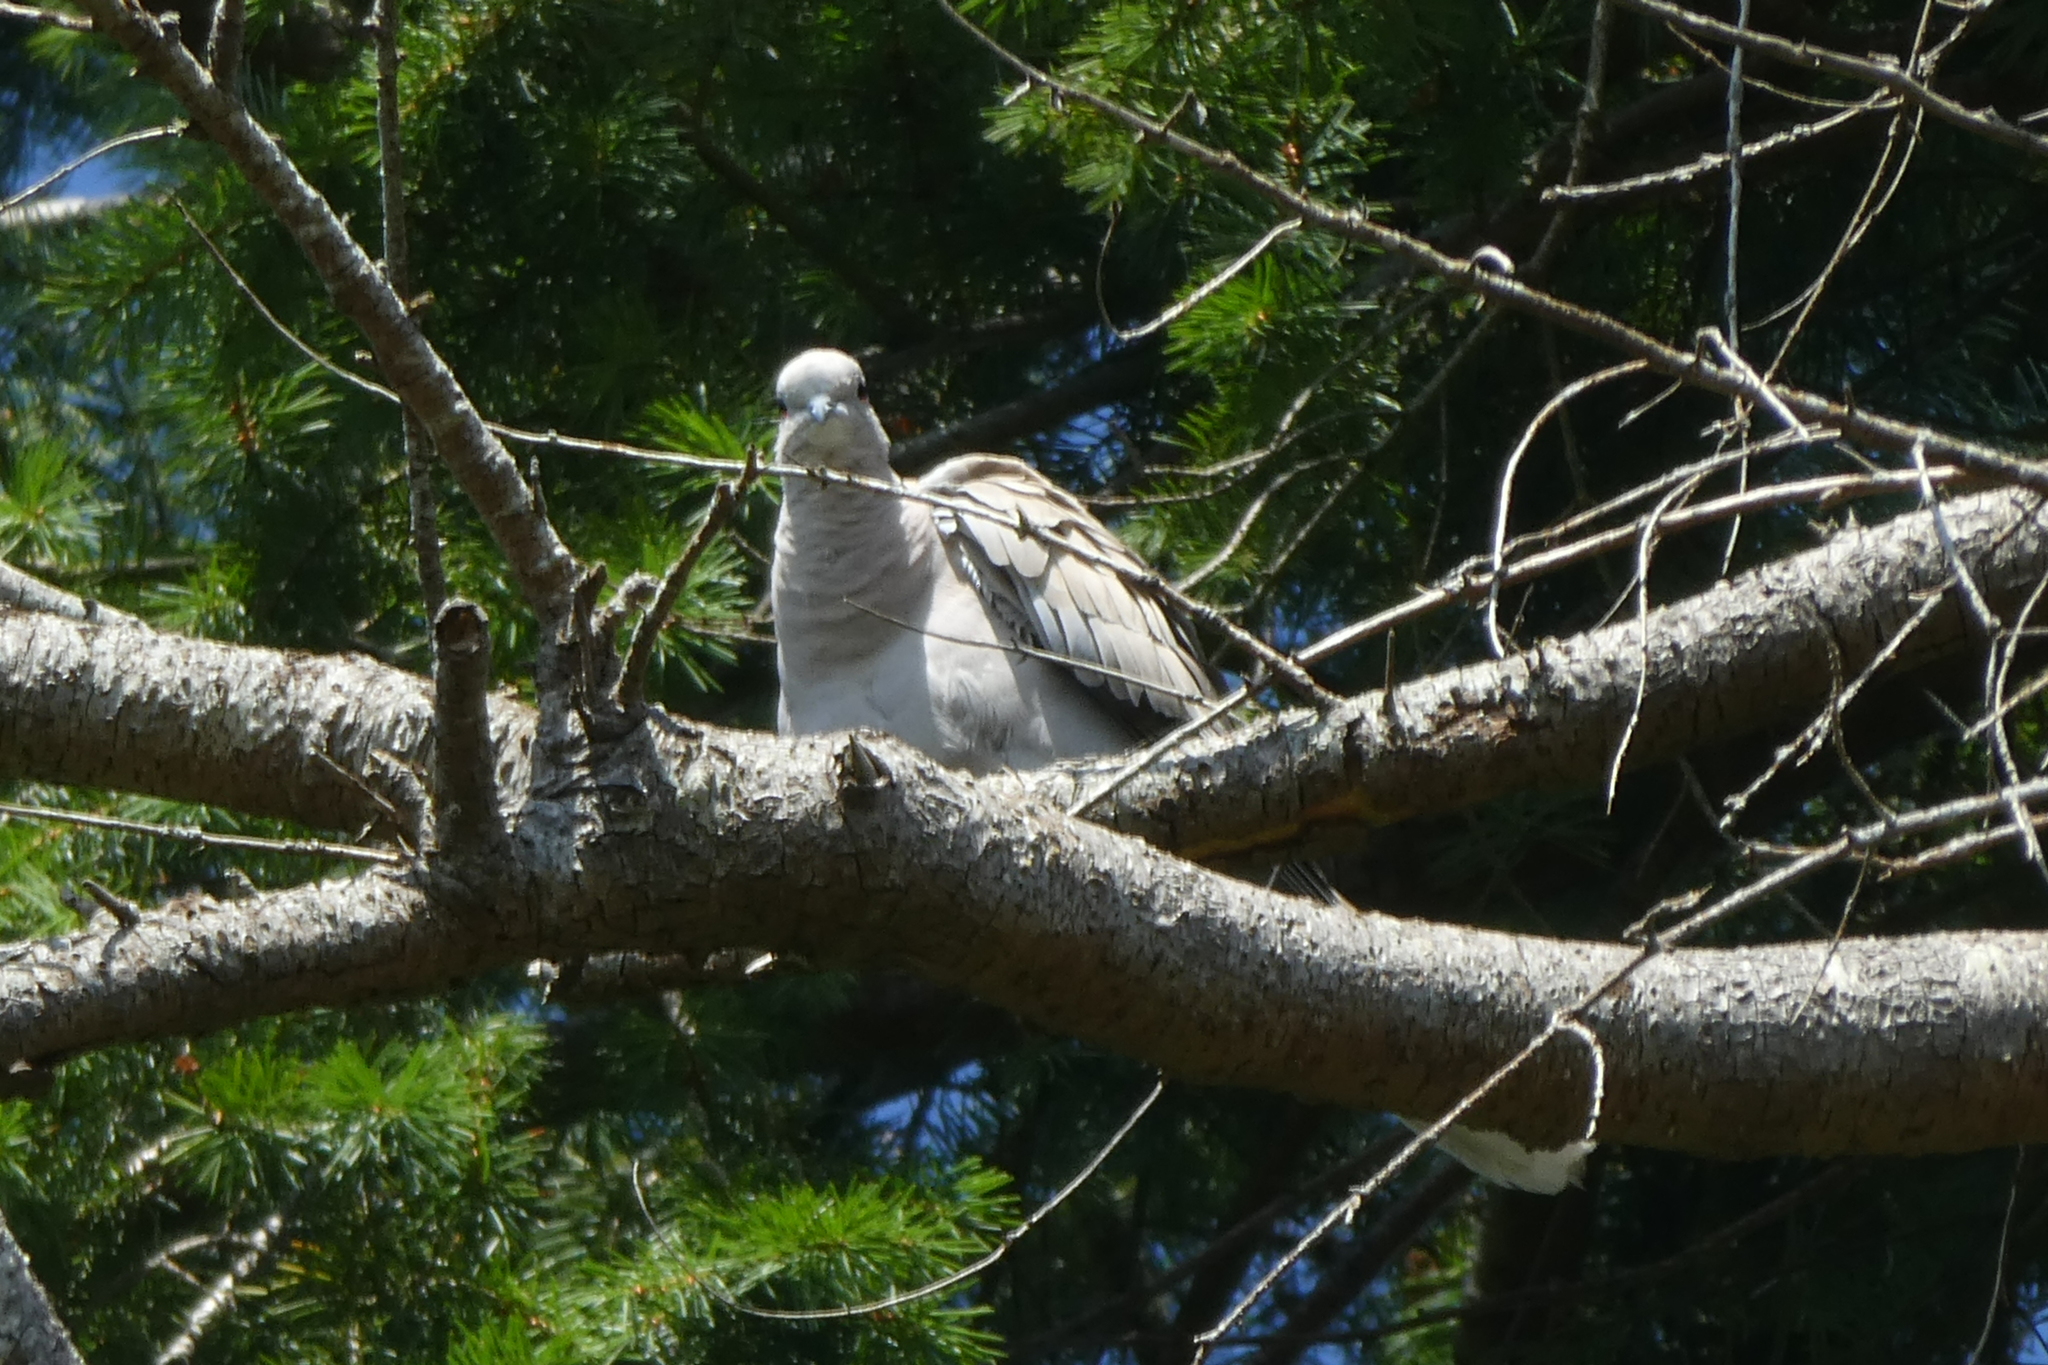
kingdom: Animalia
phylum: Chordata
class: Aves
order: Columbiformes
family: Columbidae
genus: Streptopelia
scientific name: Streptopelia decaocto
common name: Eurasian collared dove
